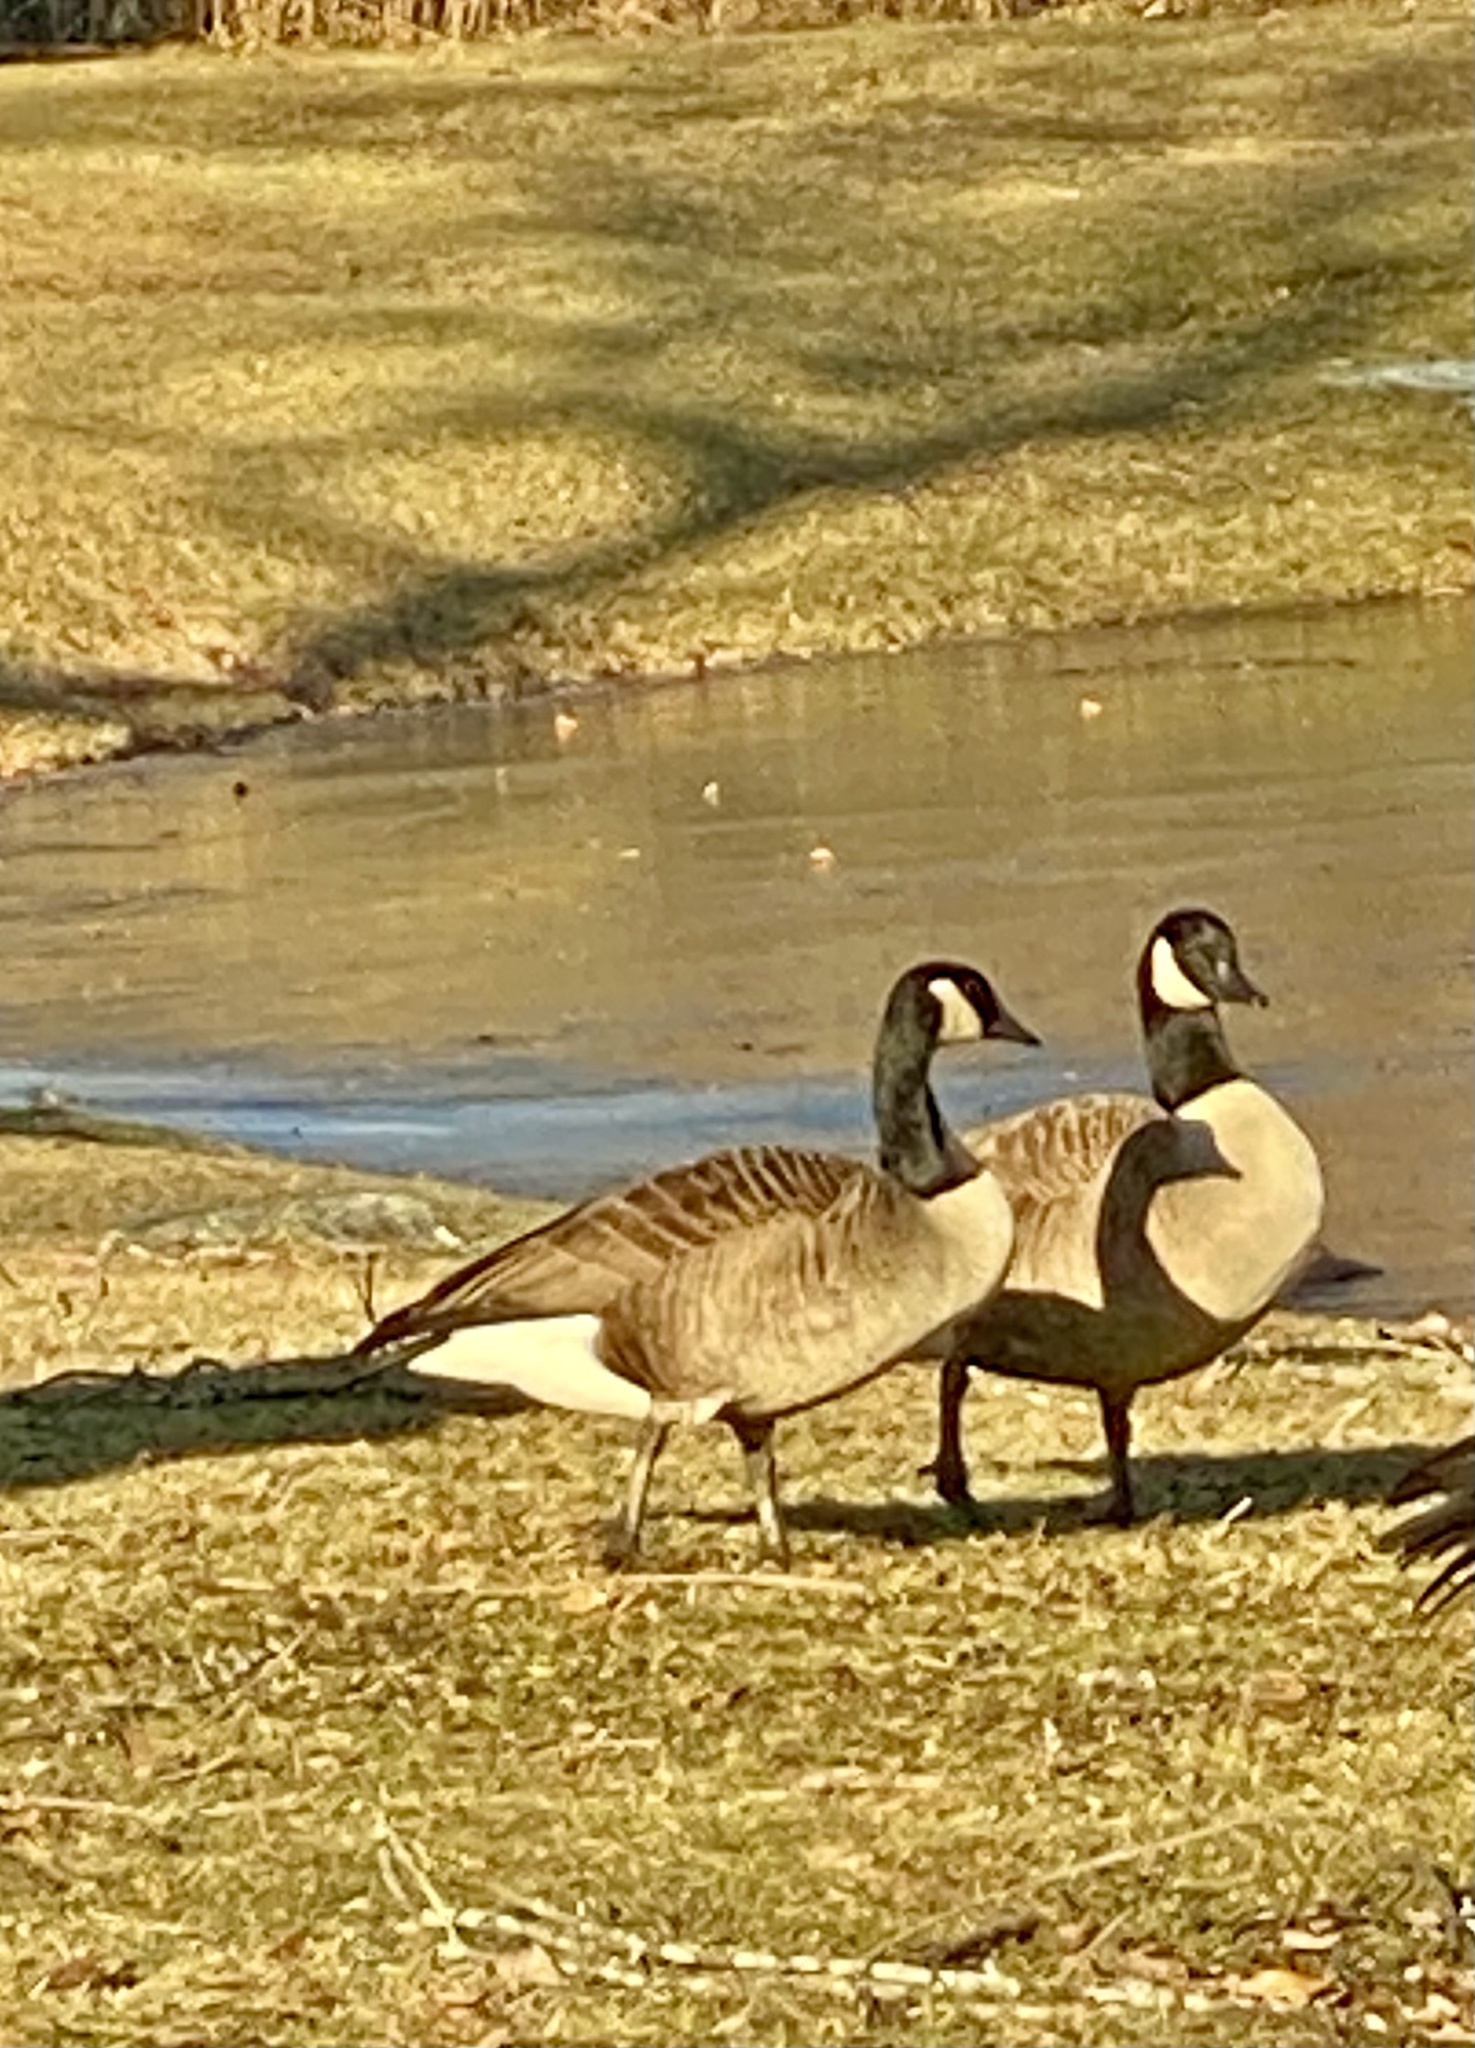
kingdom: Animalia
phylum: Chordata
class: Aves
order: Anseriformes
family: Anatidae
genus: Branta
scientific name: Branta canadensis
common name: Canada goose
